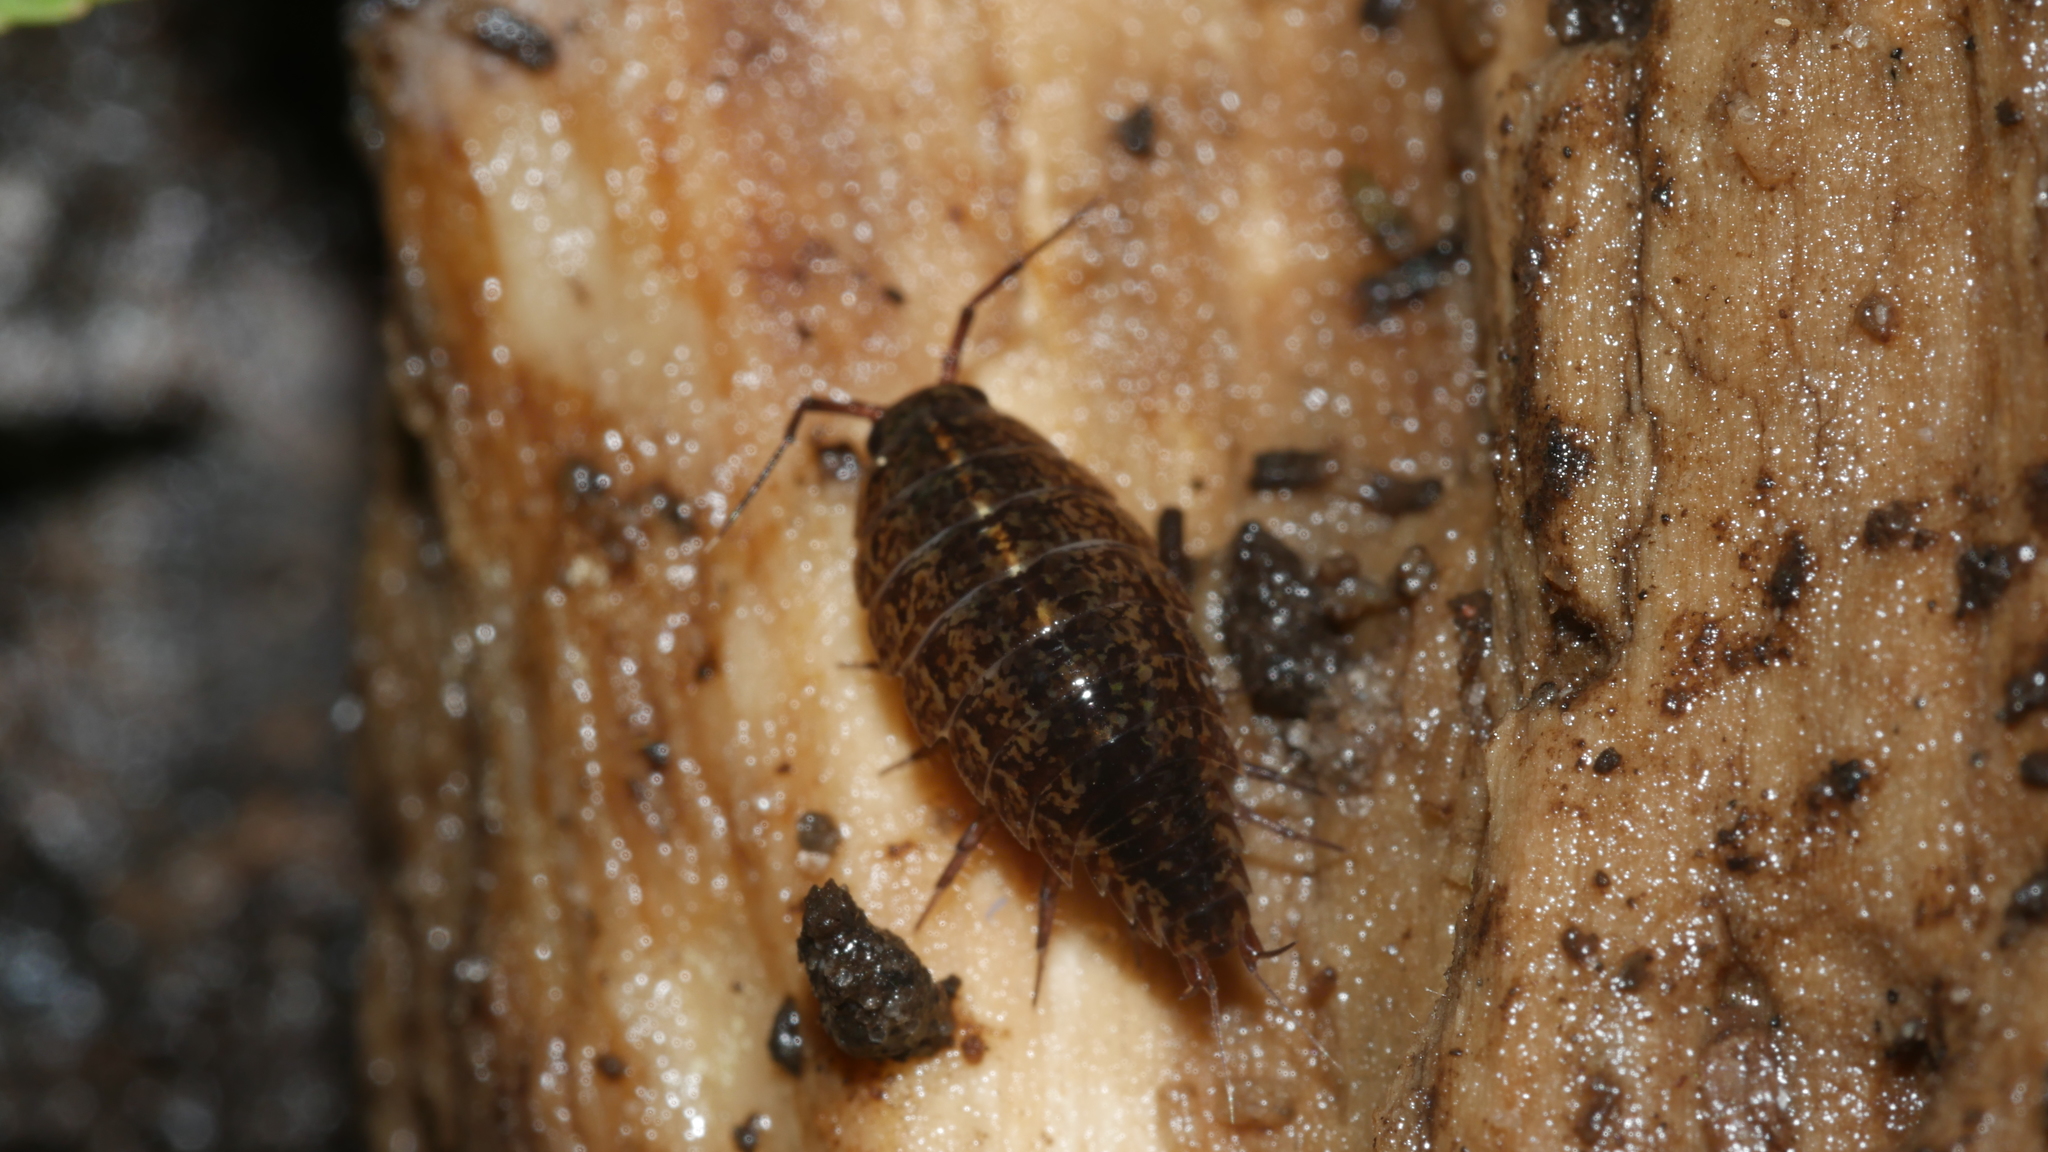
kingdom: Animalia
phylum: Arthropoda
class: Malacostraca
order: Isopoda
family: Ligiidae
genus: Ligidium
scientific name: Ligidium elrodii
